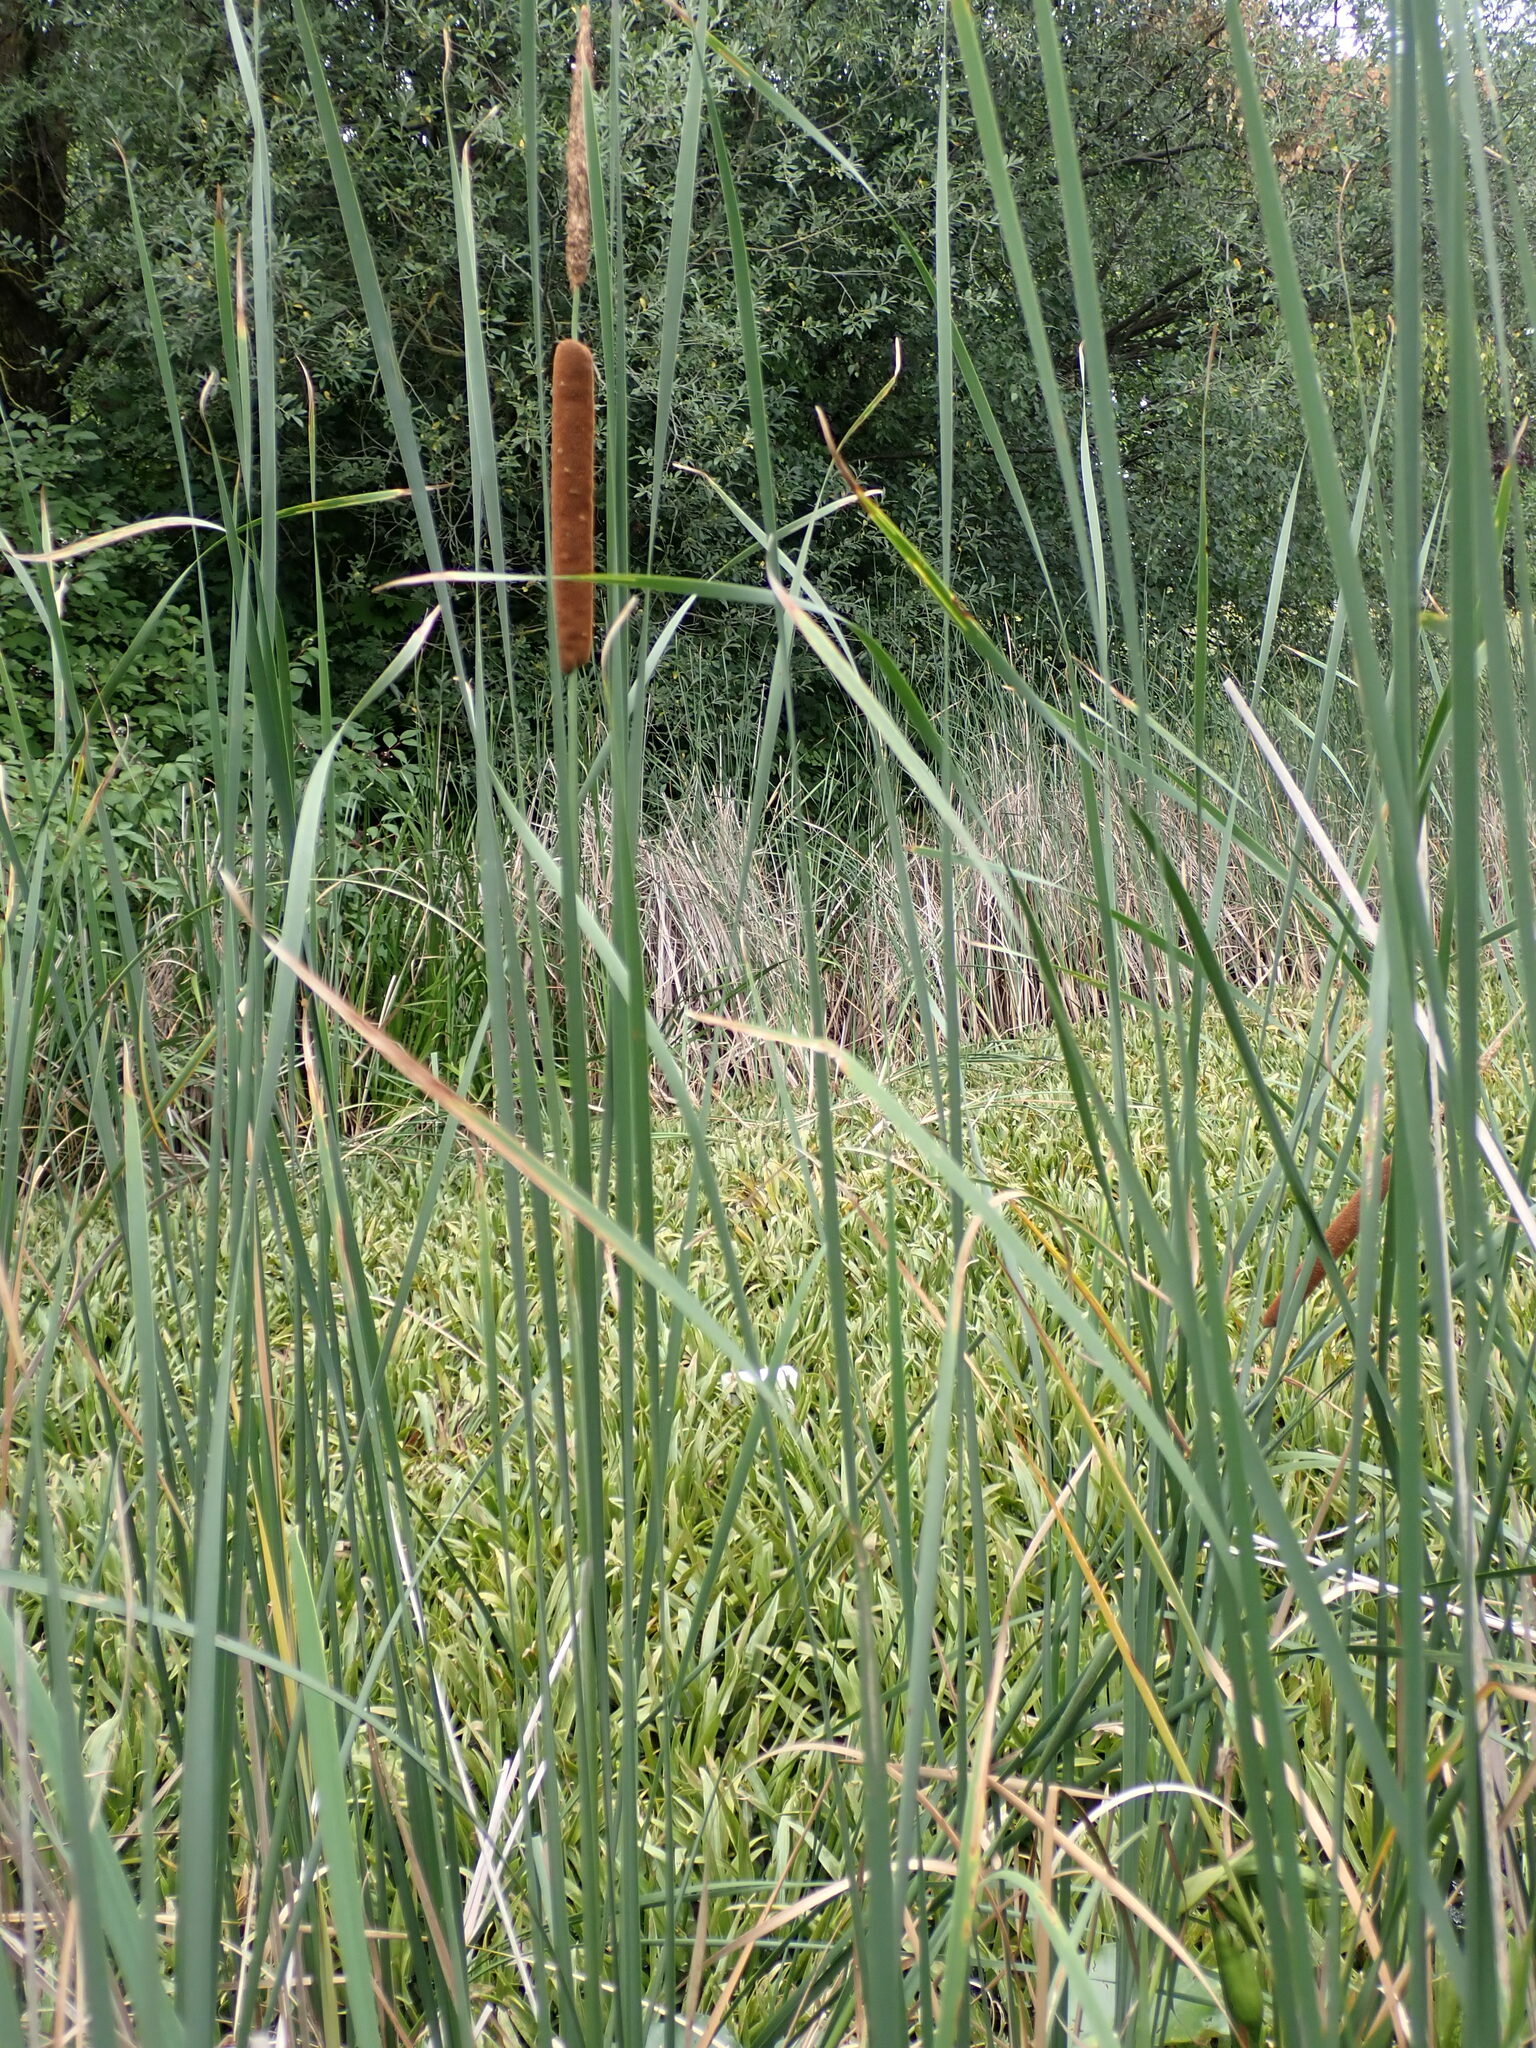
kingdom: Plantae
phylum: Tracheophyta
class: Liliopsida
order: Poales
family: Typhaceae
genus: Typha
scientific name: Typha angustifolia
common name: Lesser bulrush
